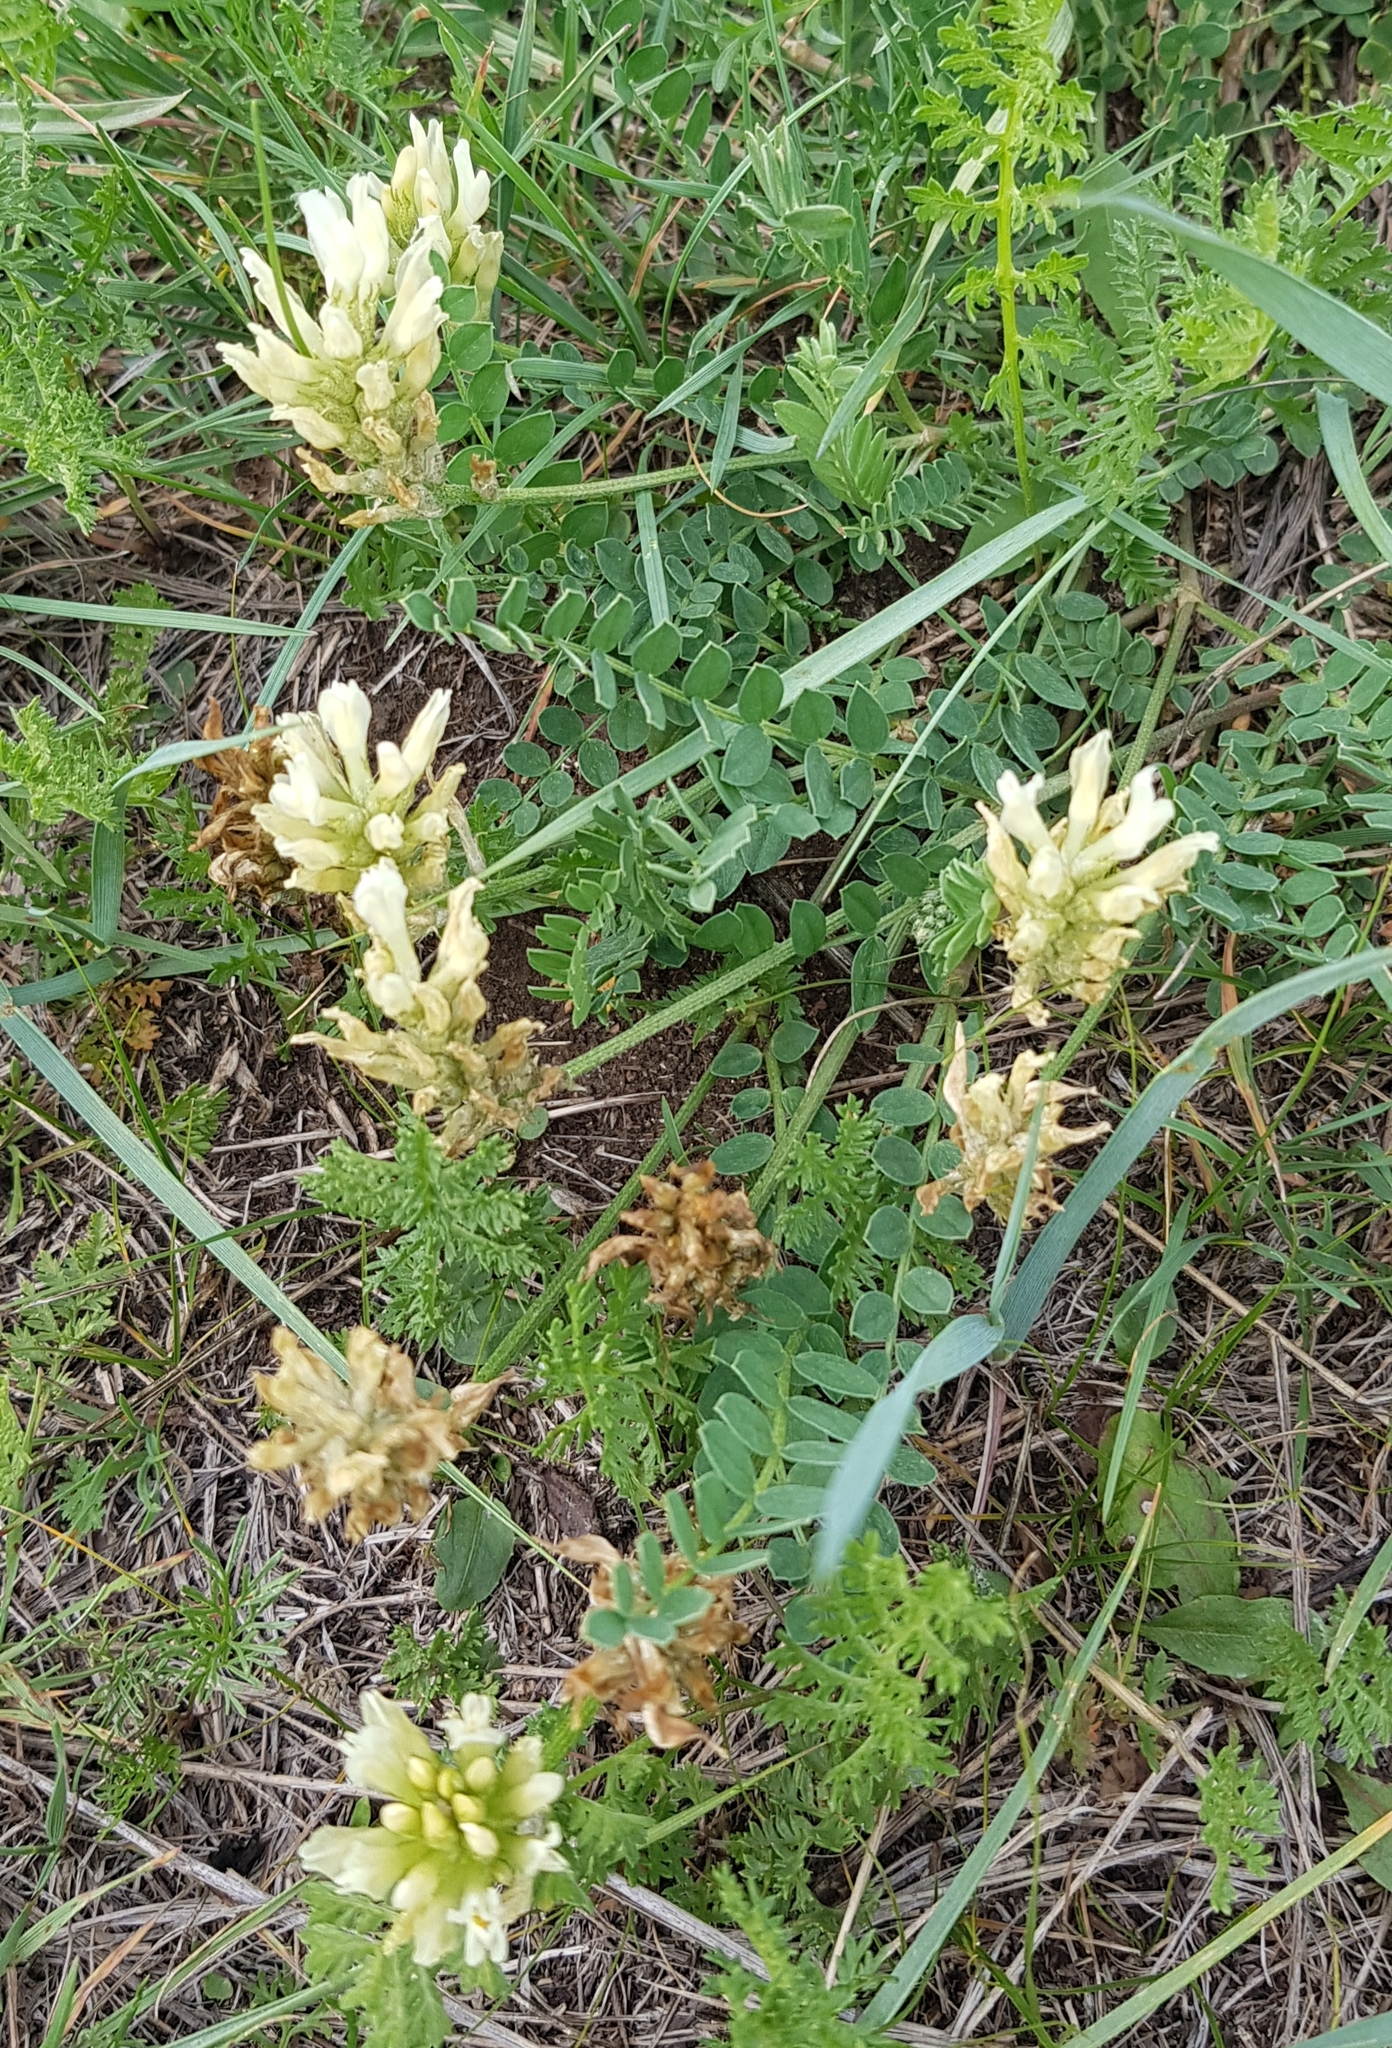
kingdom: Plantae
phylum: Tracheophyta
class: Magnoliopsida
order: Fabales
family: Fabaceae
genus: Astragalus
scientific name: Astragalus laxmannii
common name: Laxmann's milk-vetch
